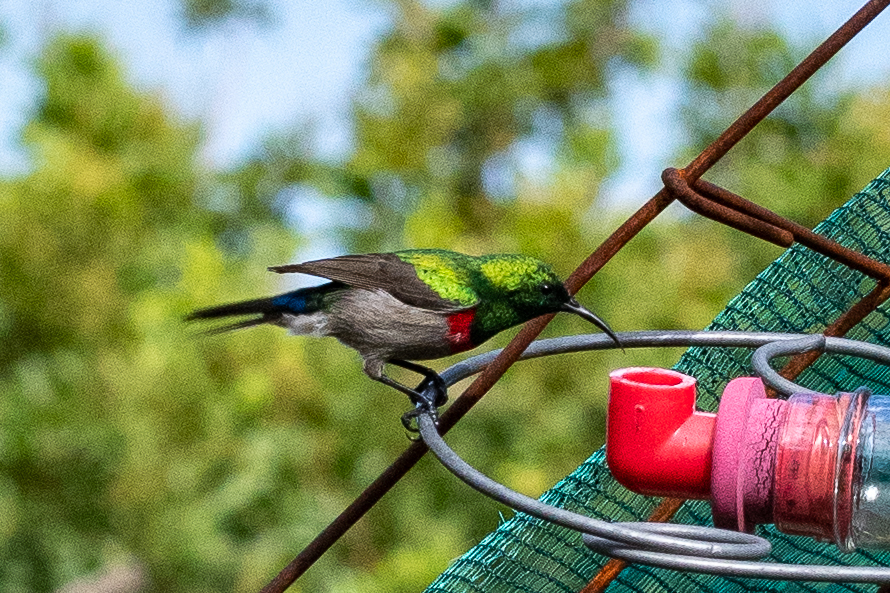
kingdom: Animalia
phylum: Chordata
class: Aves
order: Passeriformes
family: Nectariniidae
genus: Cinnyris
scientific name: Cinnyris chalybeus
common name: Southern double-collared sunbird
